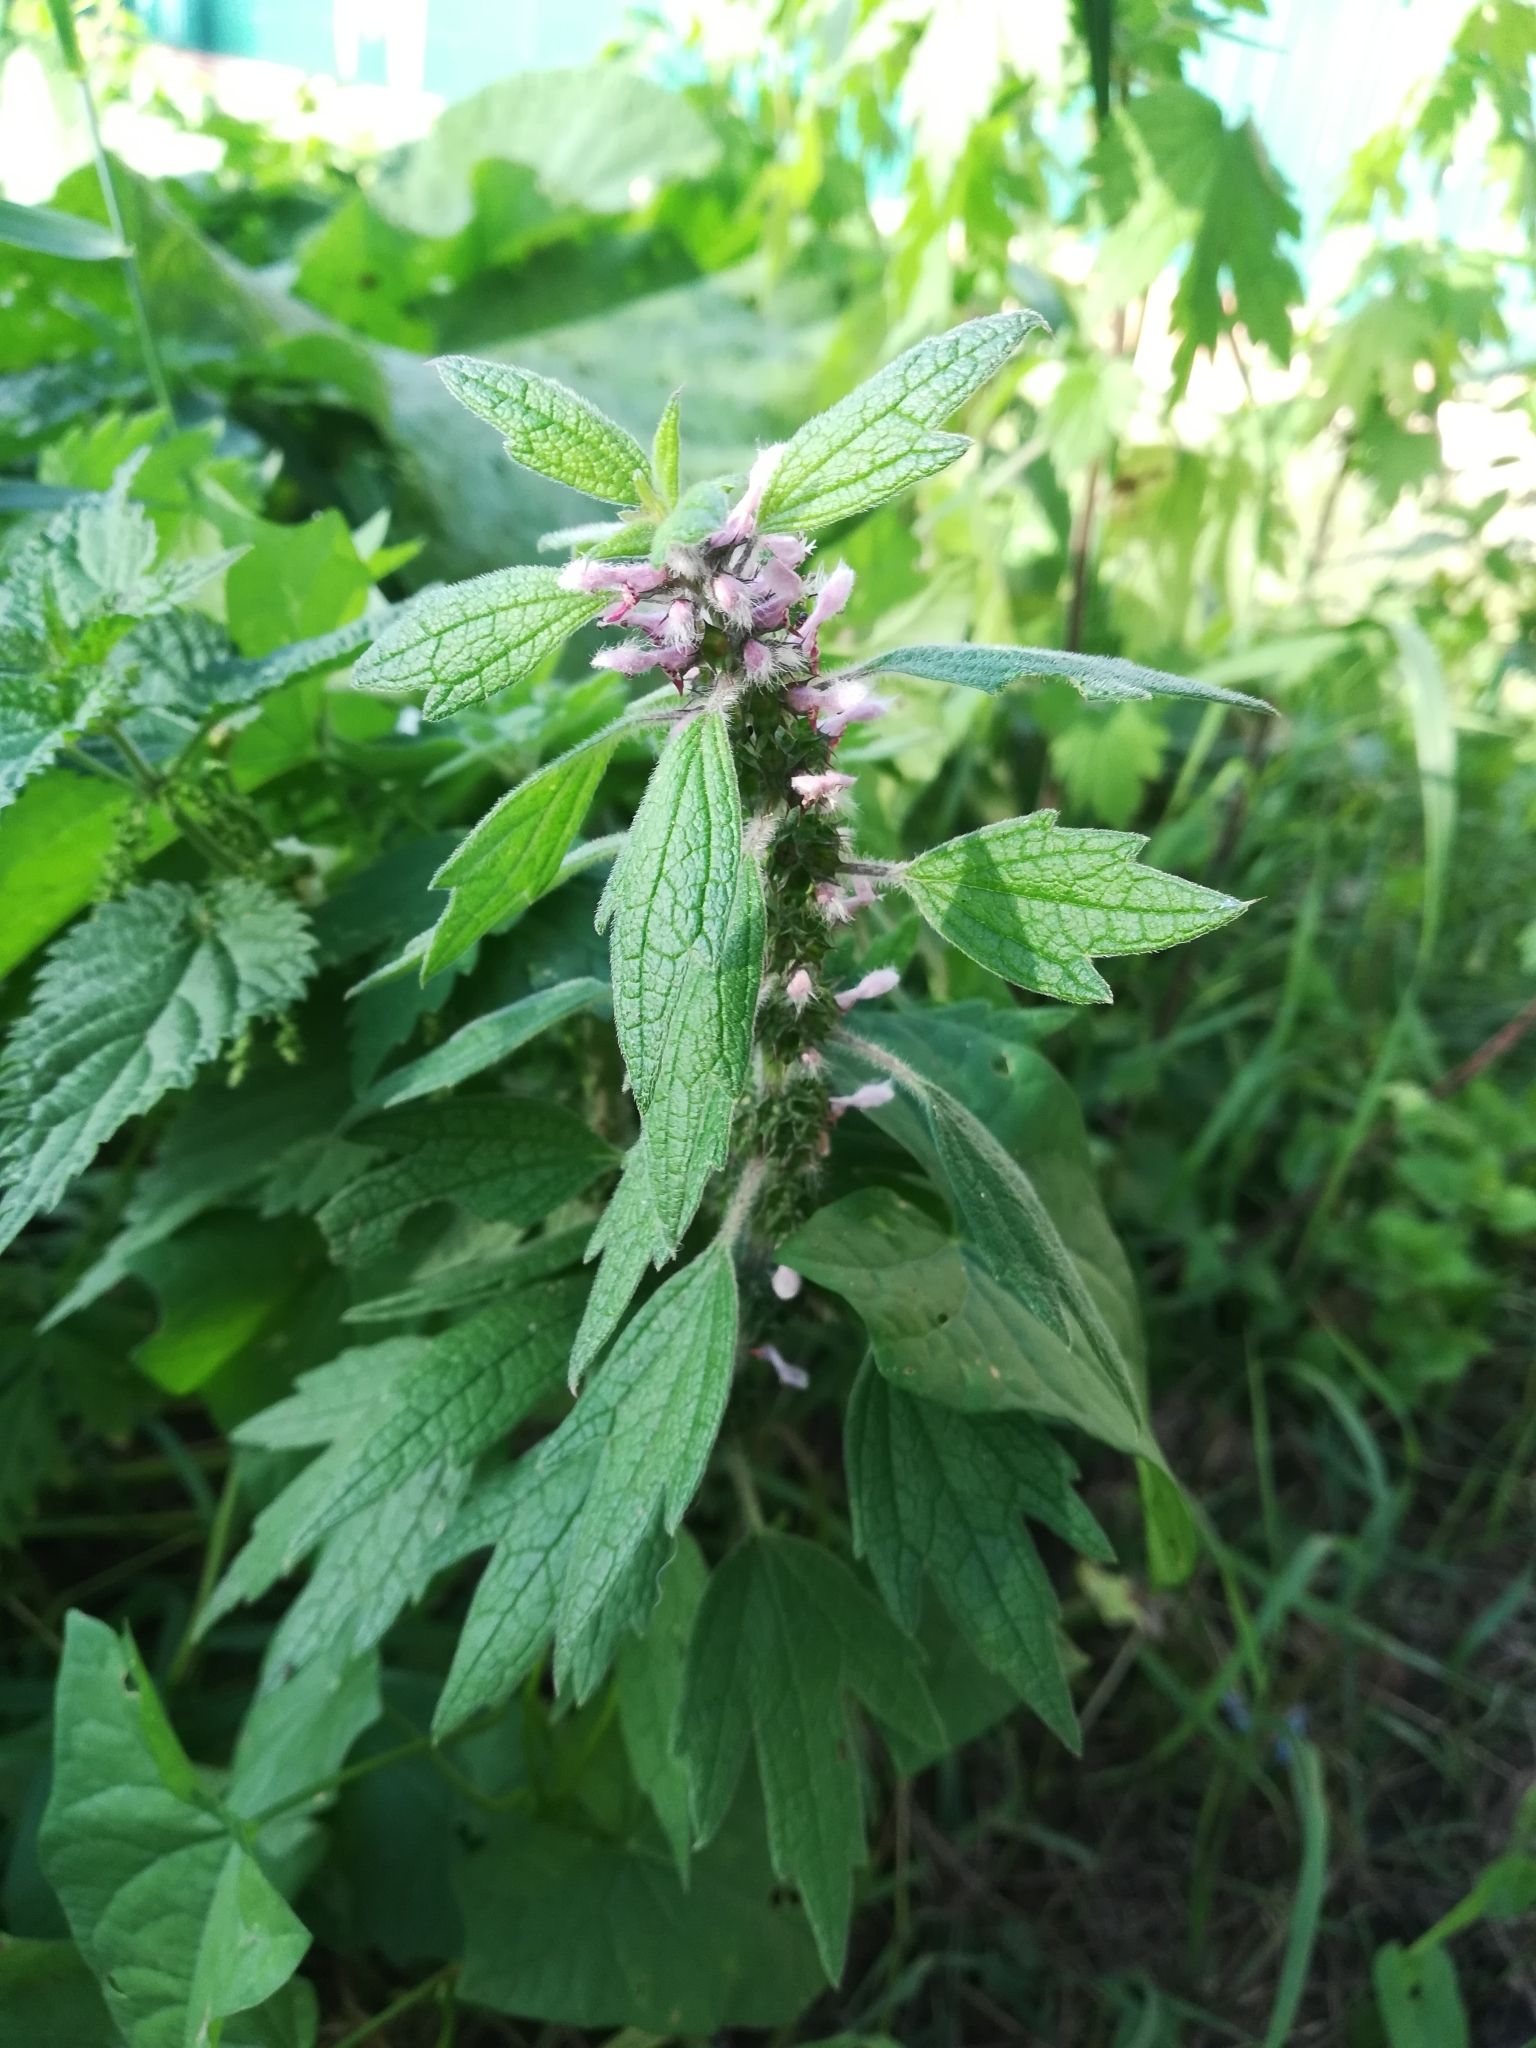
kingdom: Plantae
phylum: Tracheophyta
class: Magnoliopsida
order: Lamiales
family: Lamiaceae
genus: Leonurus
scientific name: Leonurus quinquelobatus
